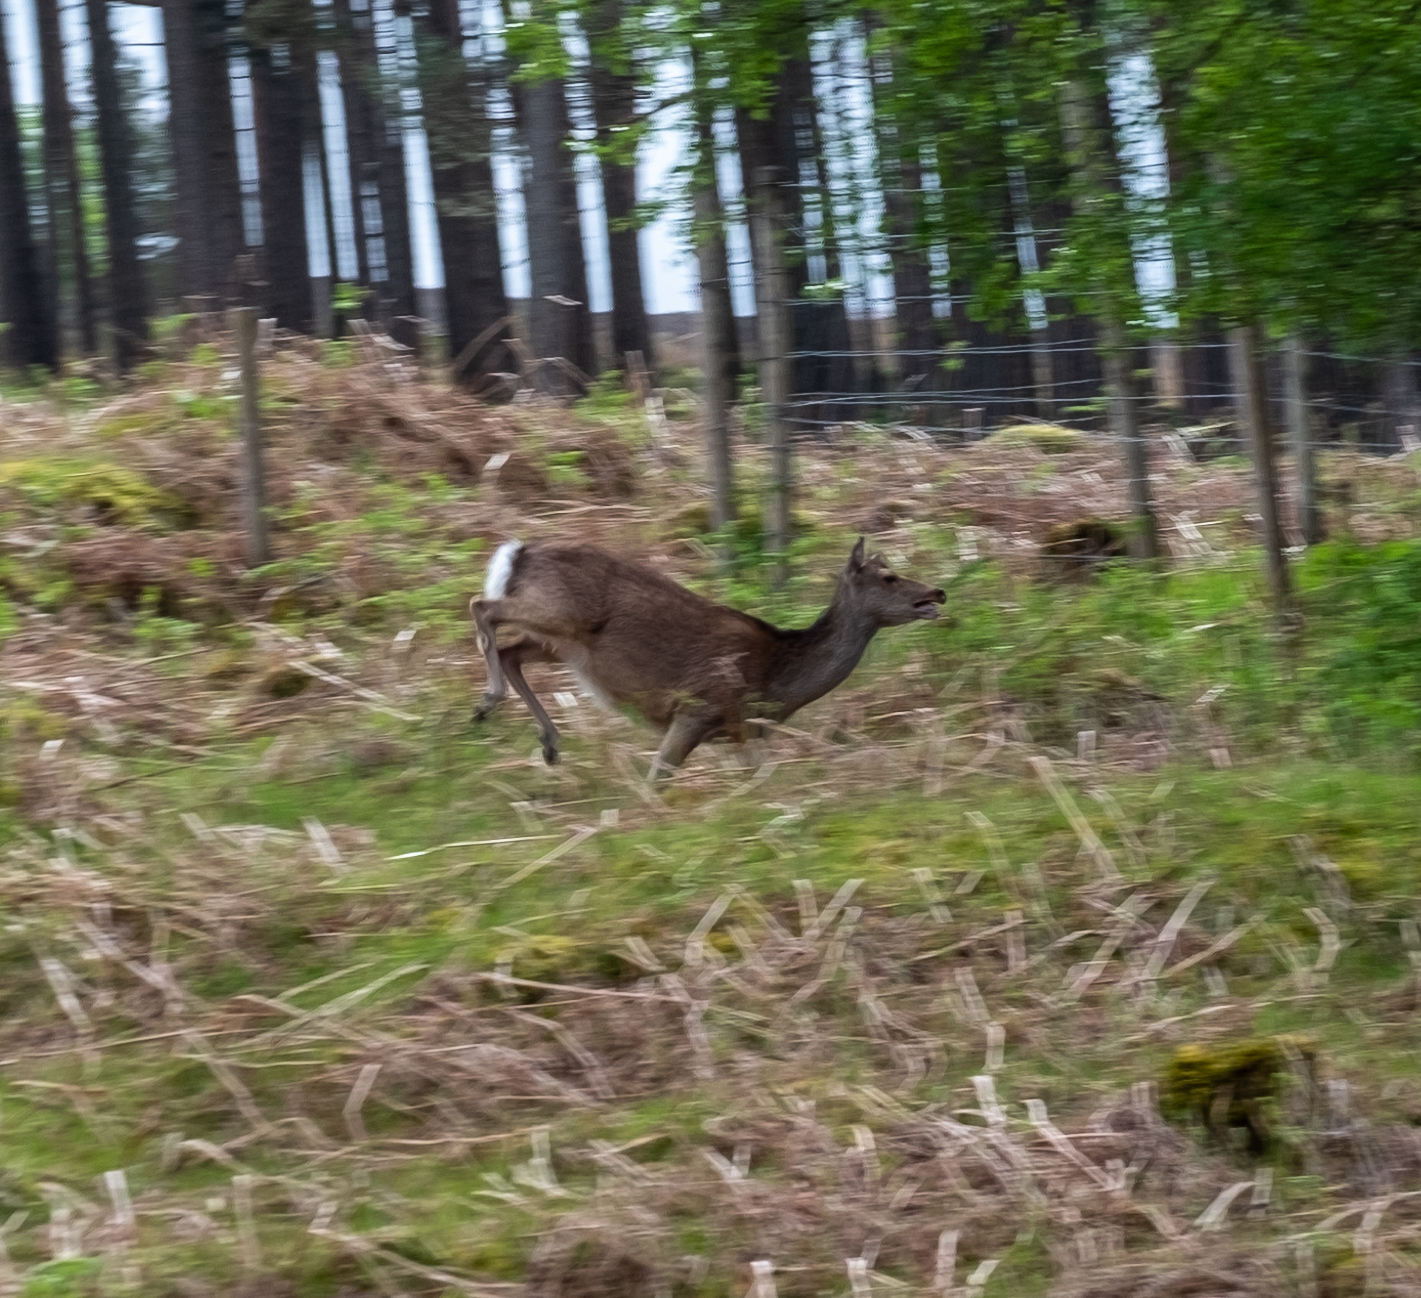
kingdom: Animalia
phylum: Chordata
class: Mammalia
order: Artiodactyla
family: Cervidae
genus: Cervus
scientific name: Cervus nippon
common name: Sika deer
